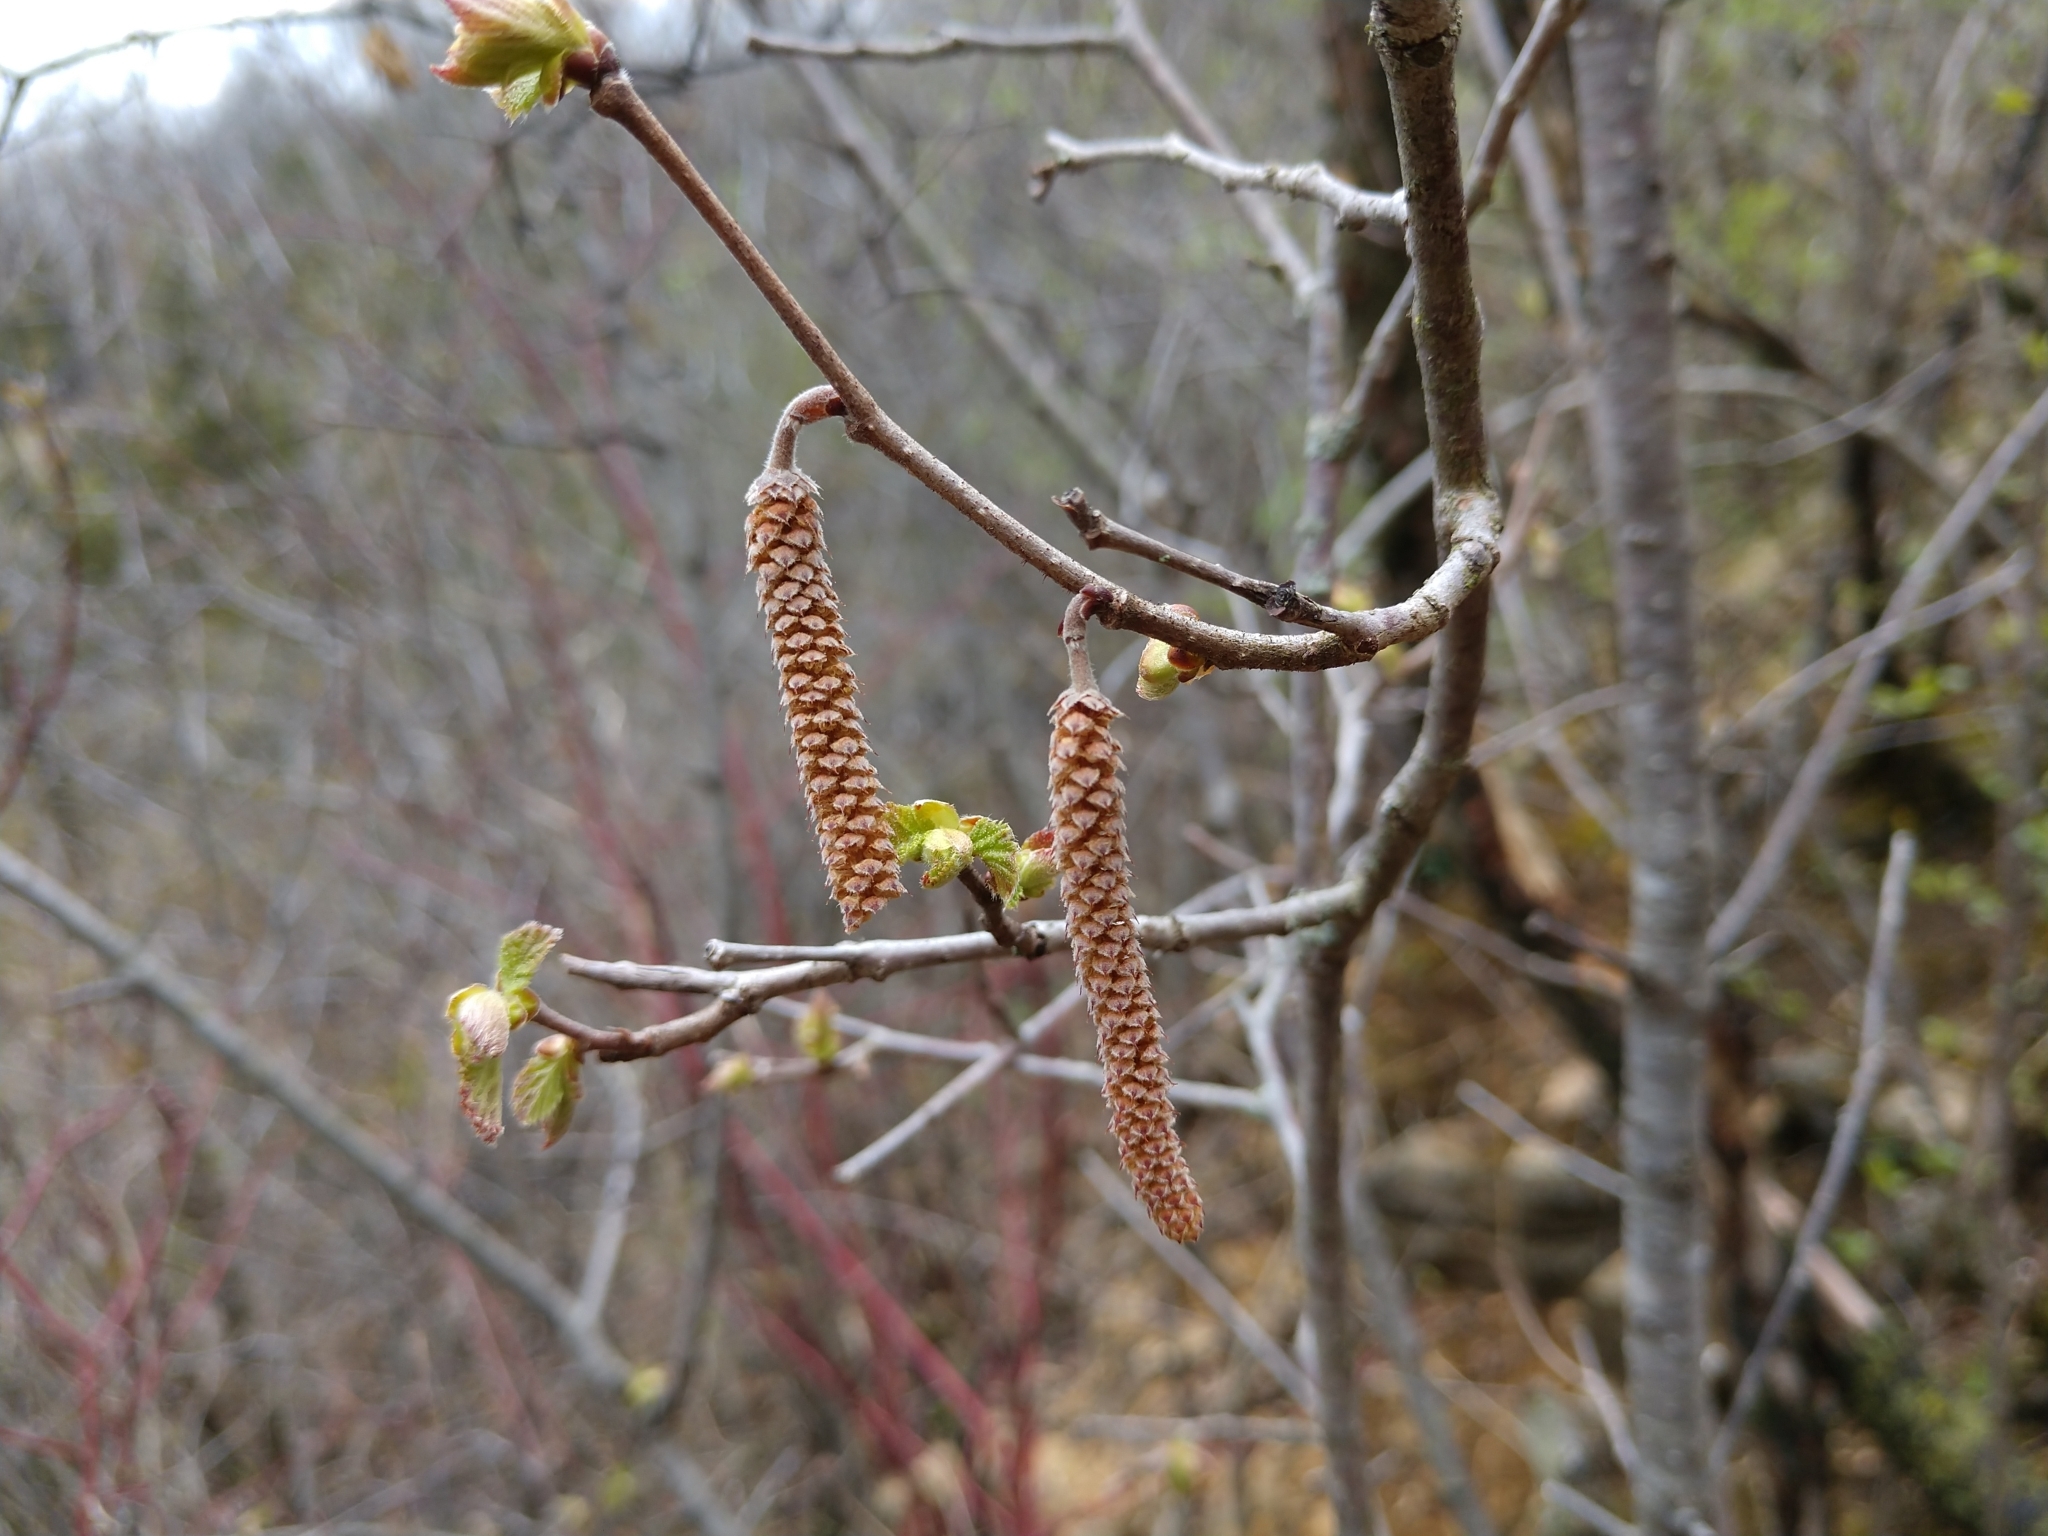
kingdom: Plantae
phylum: Tracheophyta
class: Magnoliopsida
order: Fagales
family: Betulaceae
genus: Corylus
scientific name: Corylus americana
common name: American hazel
